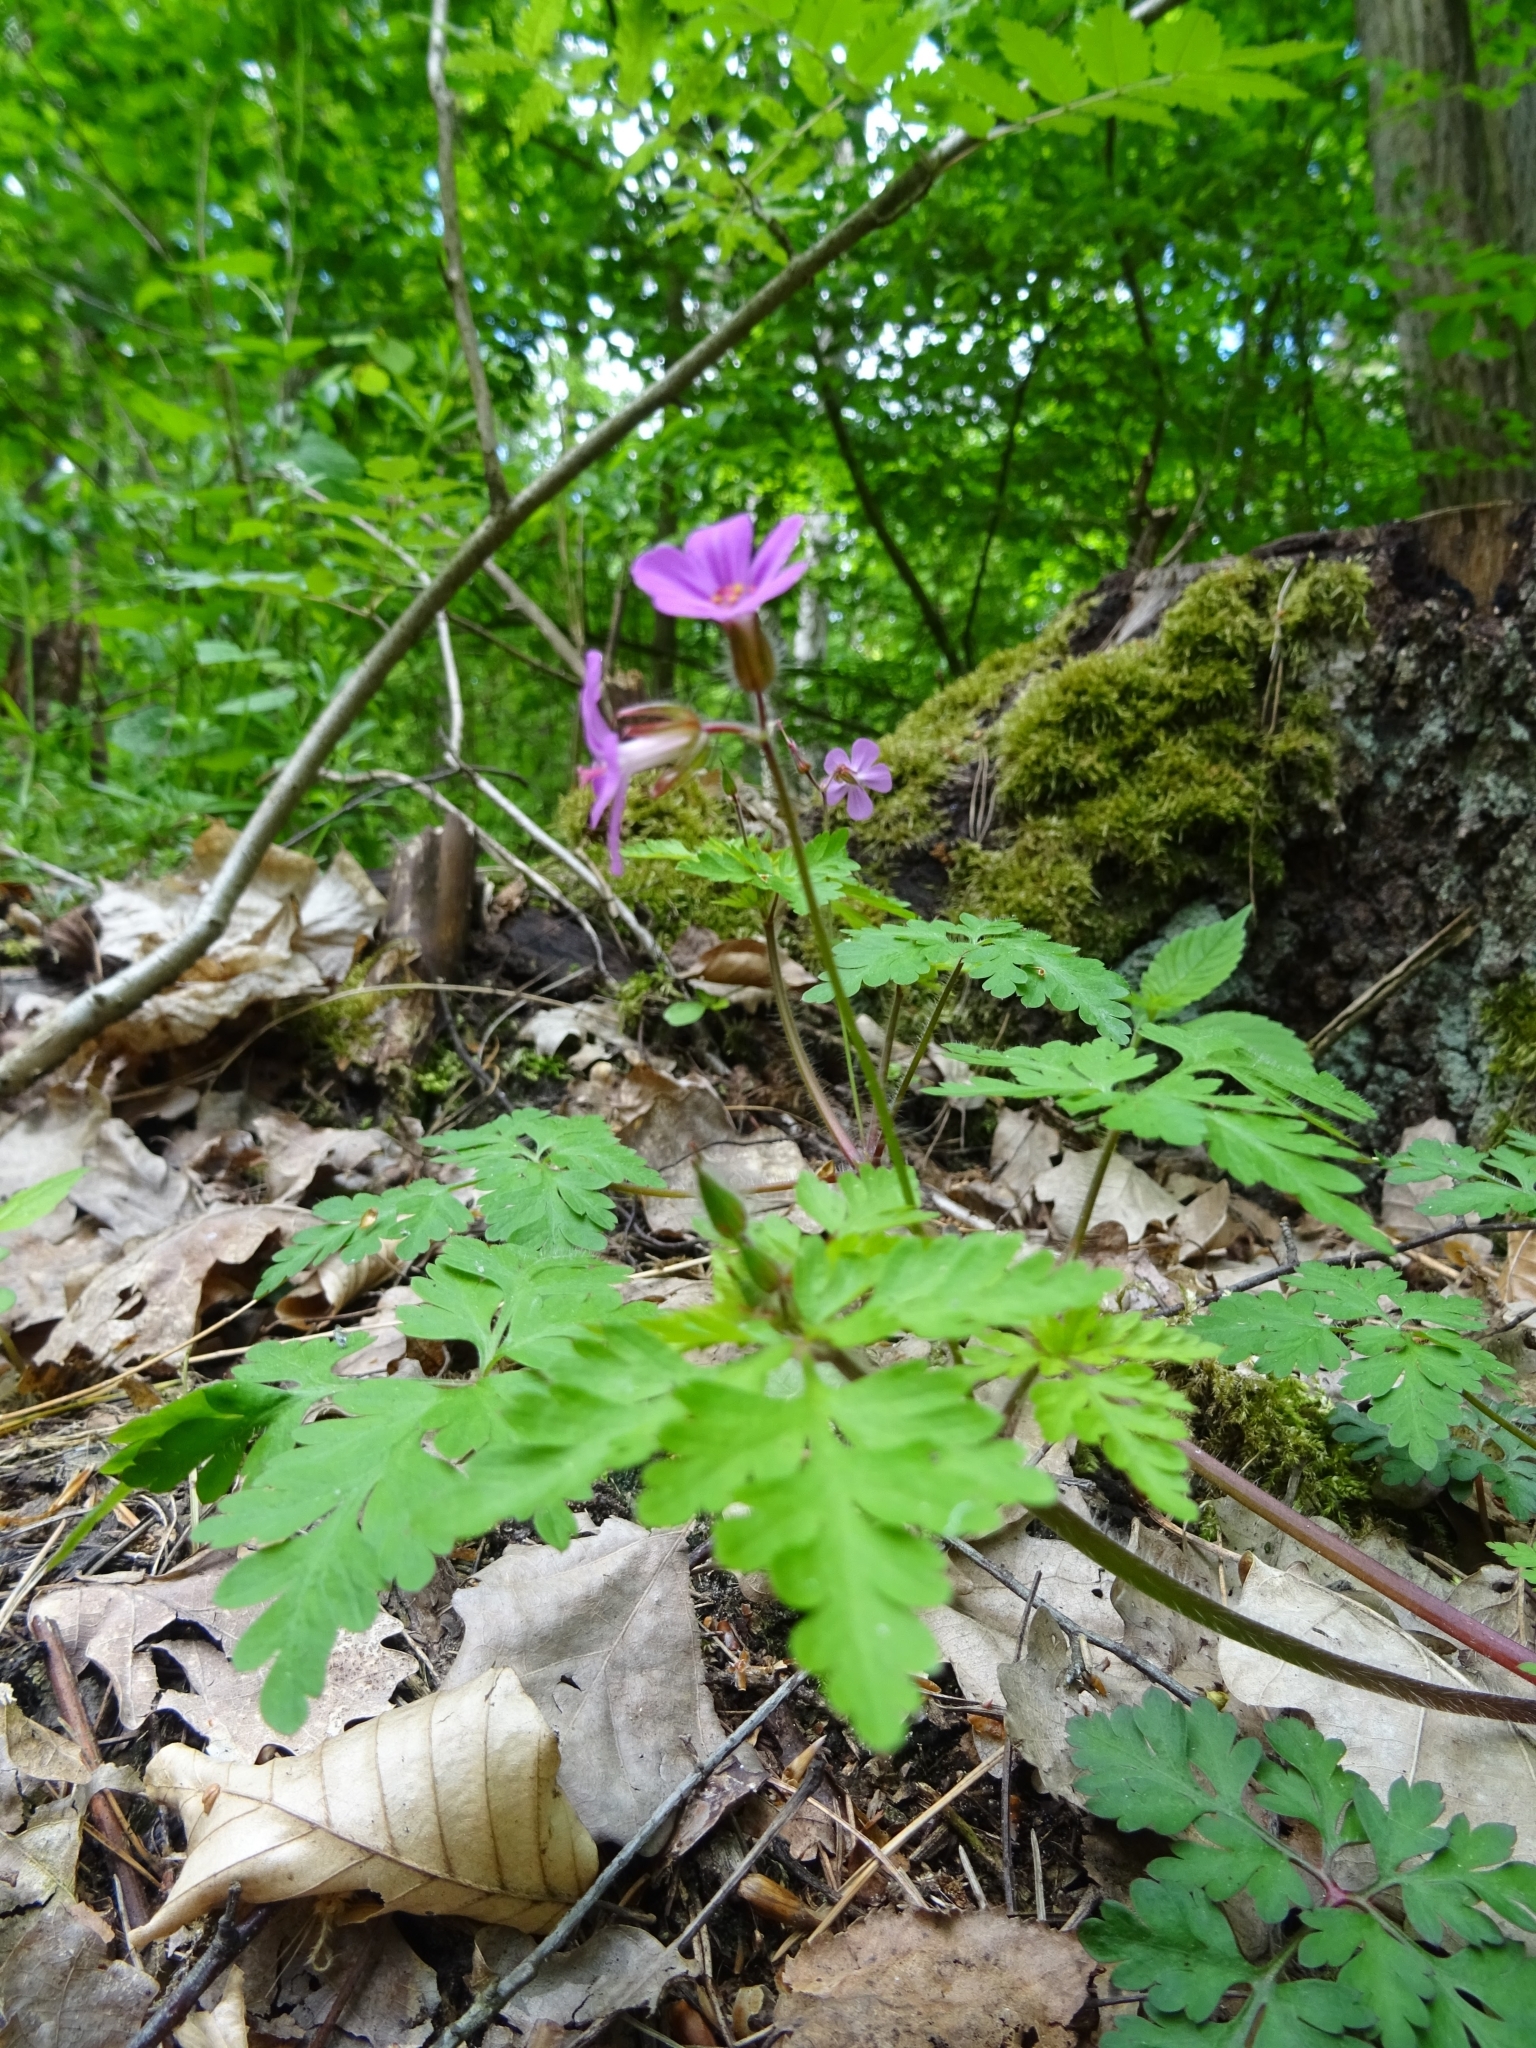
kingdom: Plantae
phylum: Tracheophyta
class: Magnoliopsida
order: Geraniales
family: Geraniaceae
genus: Geranium
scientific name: Geranium robertianum
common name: Herb-robert
